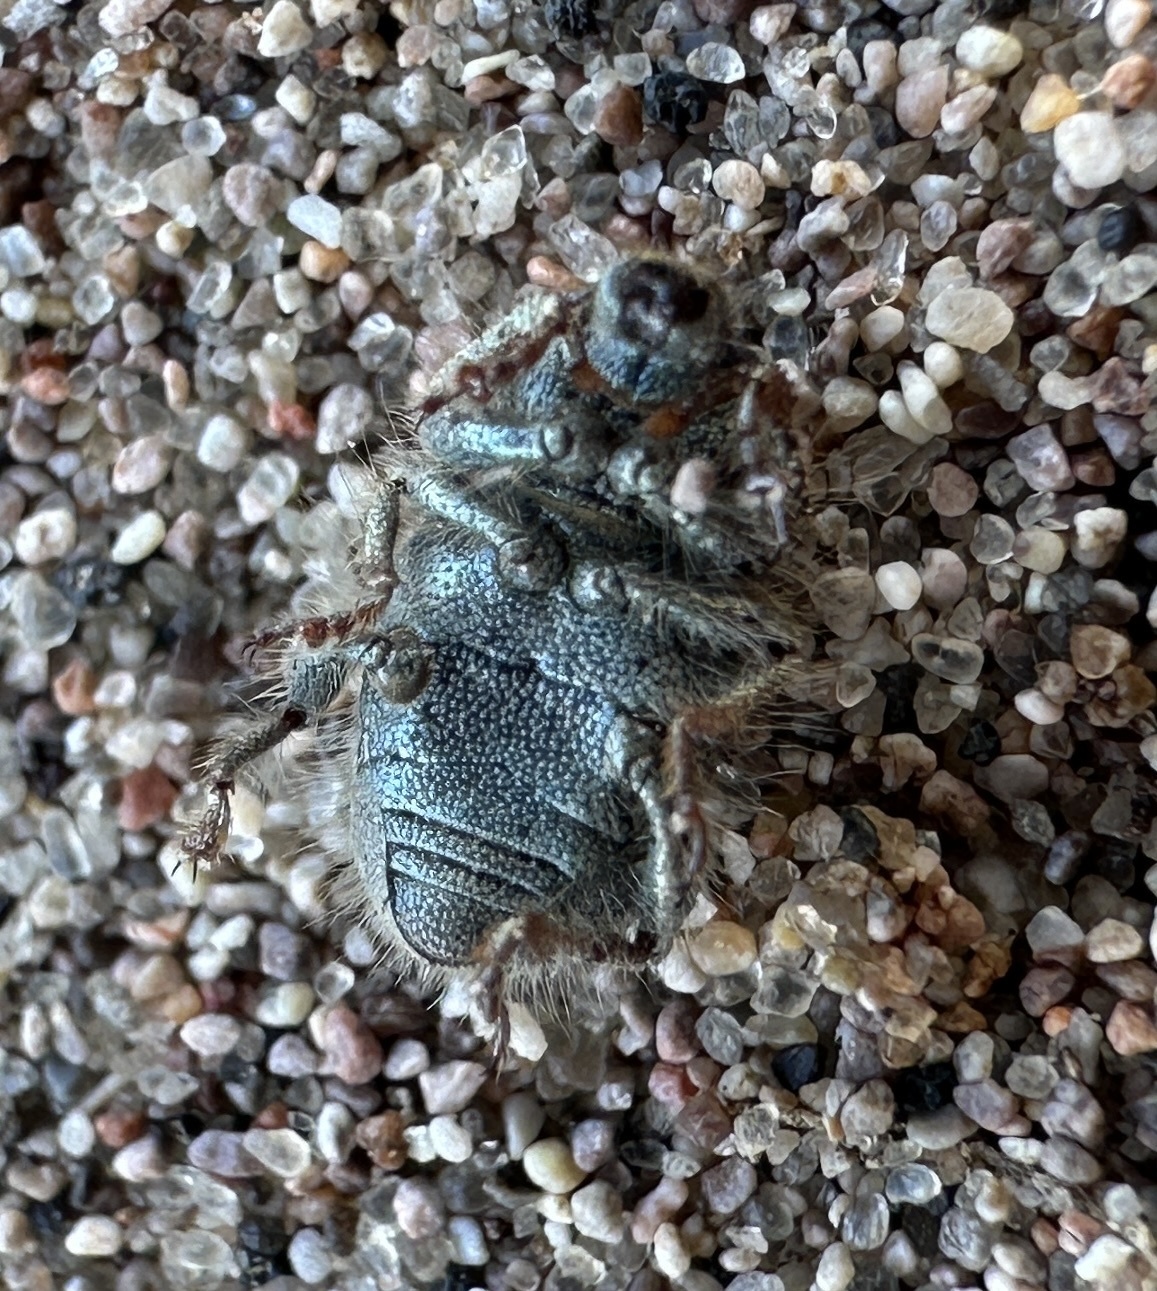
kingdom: Animalia
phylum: Arthropoda
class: Insecta
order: Coleoptera
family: Curculionidae
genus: Miloderes
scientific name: Miloderes amargosensis
